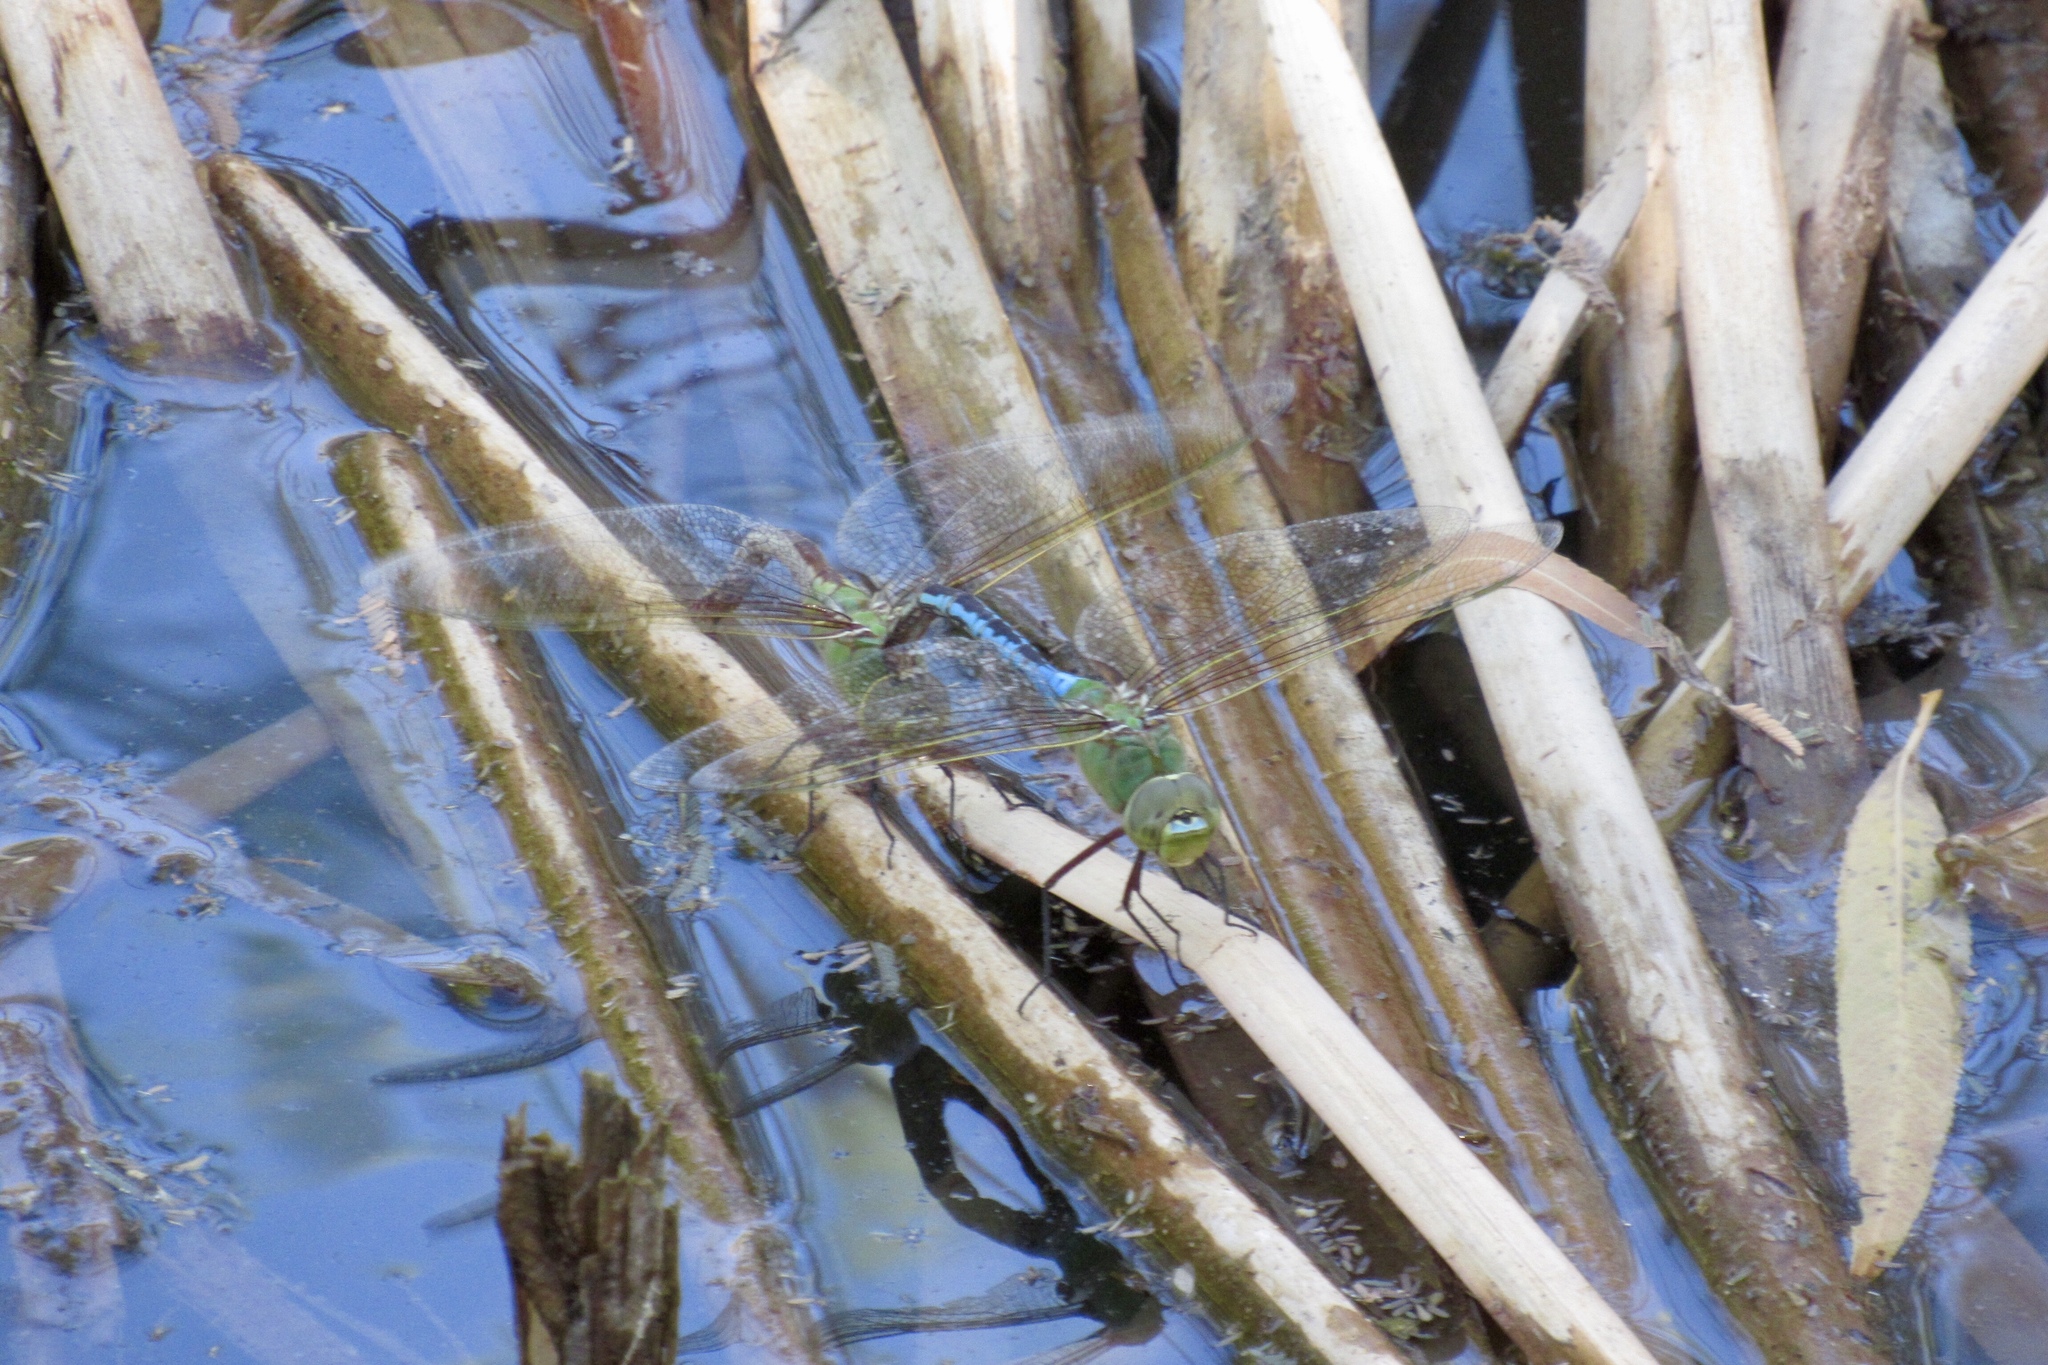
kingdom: Animalia
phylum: Arthropoda
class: Insecta
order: Odonata
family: Aeshnidae
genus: Anax
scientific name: Anax junius
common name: Common green darner
